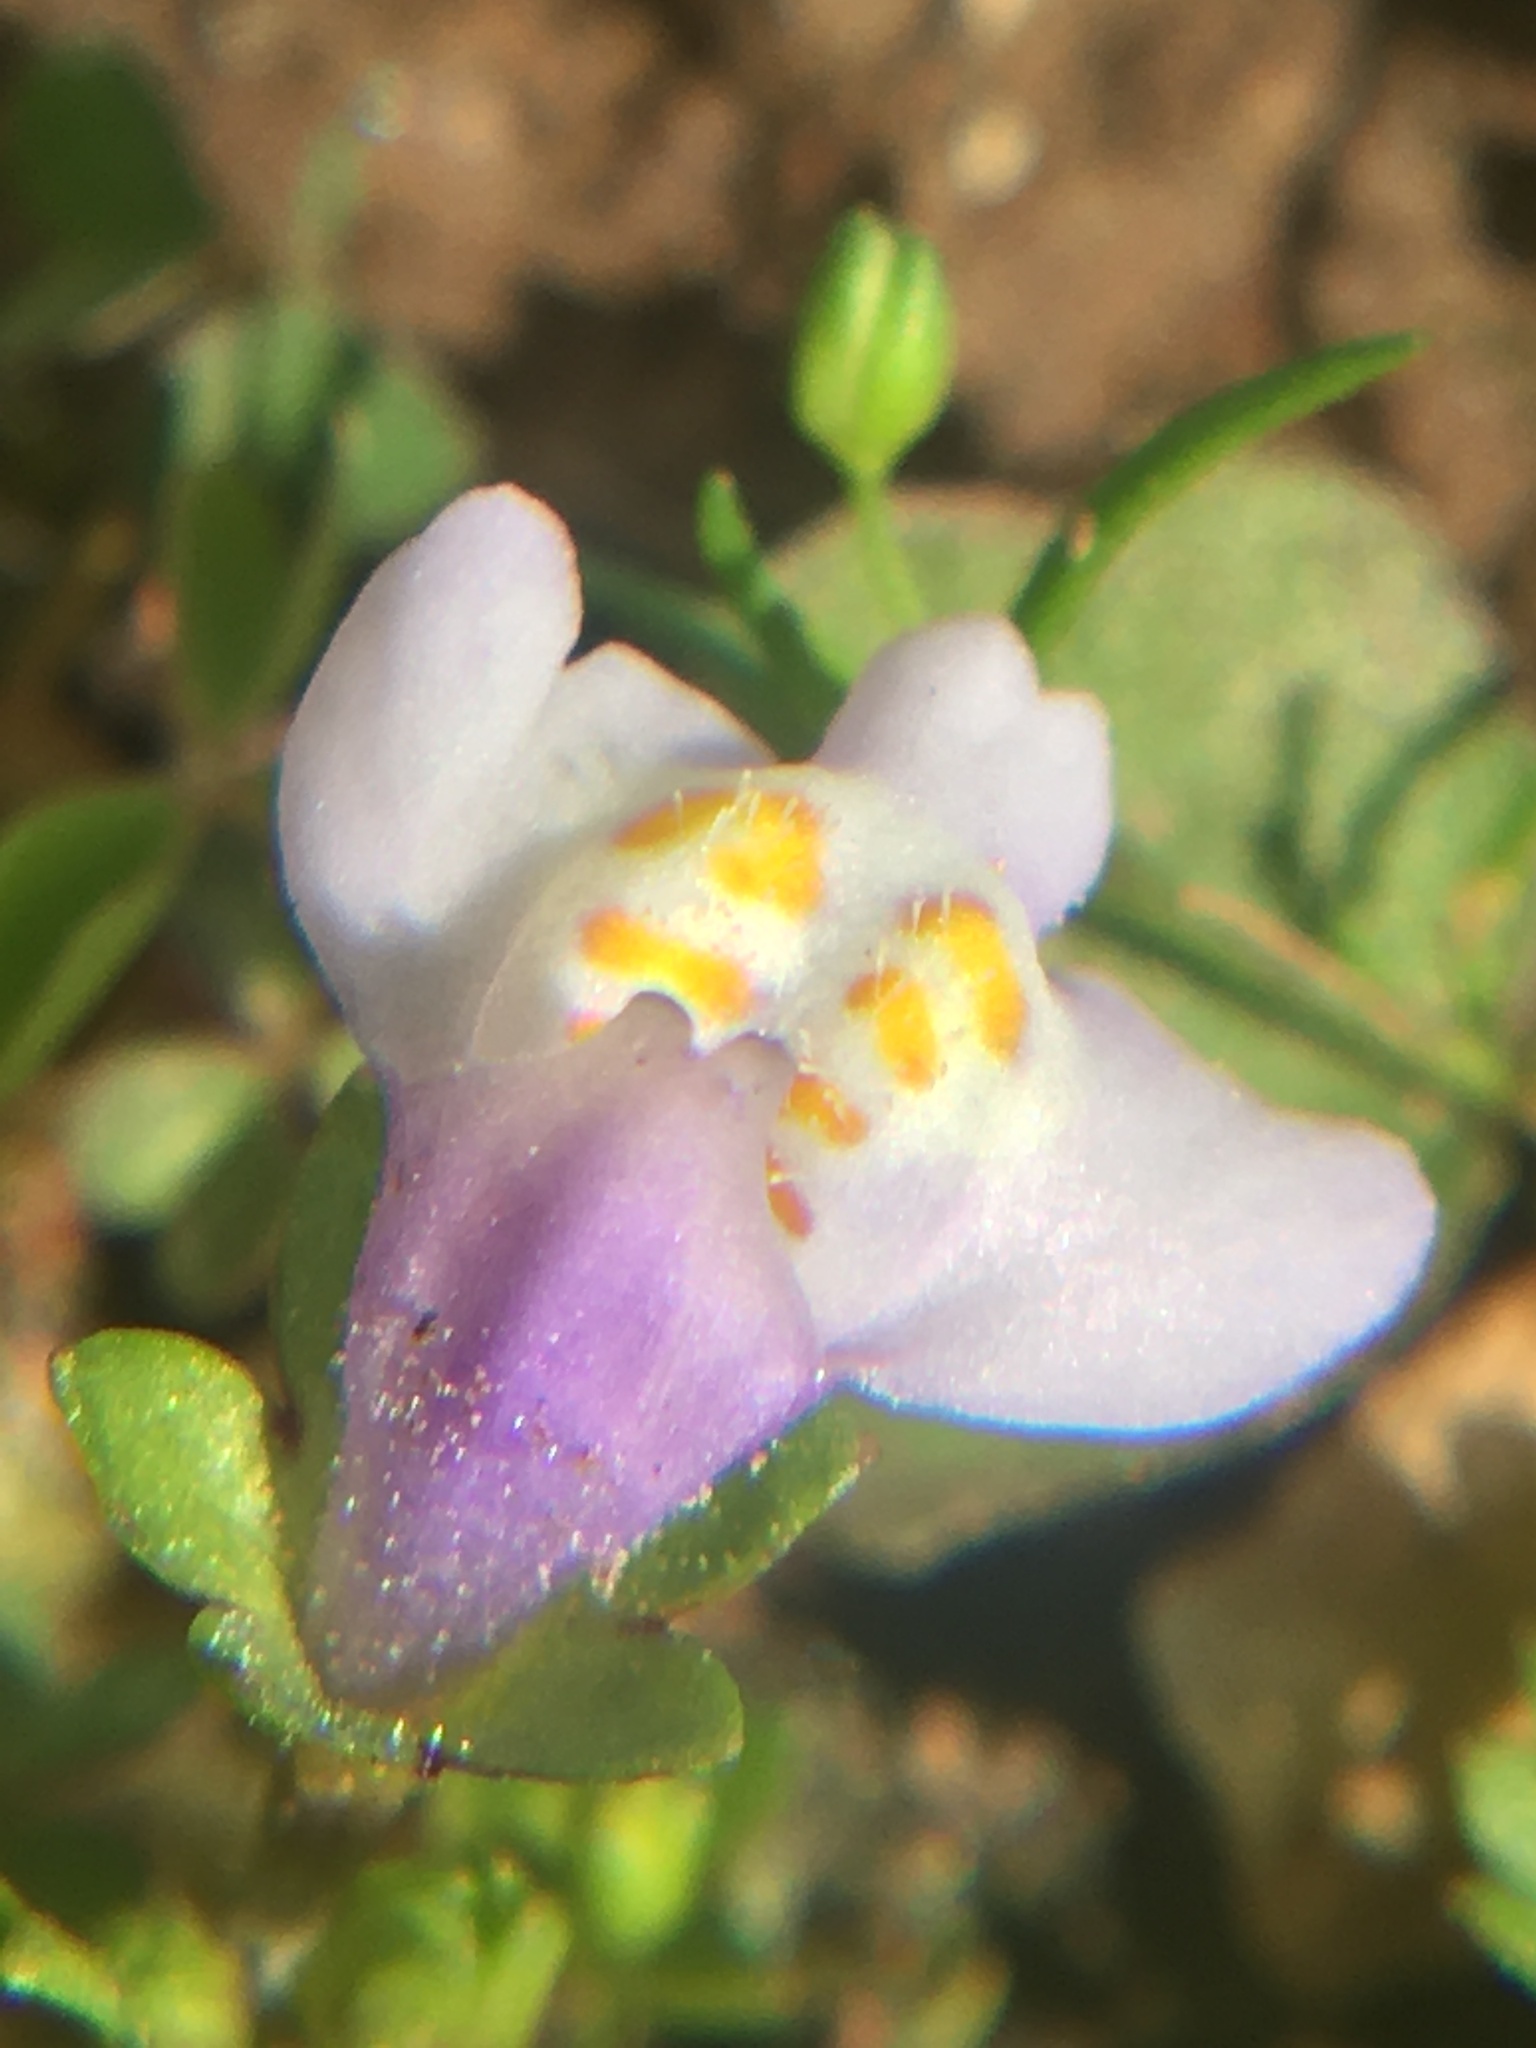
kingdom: Plantae
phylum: Tracheophyta
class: Magnoliopsida
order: Lamiales
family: Mazaceae
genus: Mazus
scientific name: Mazus pumilus
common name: Japanese mazus
